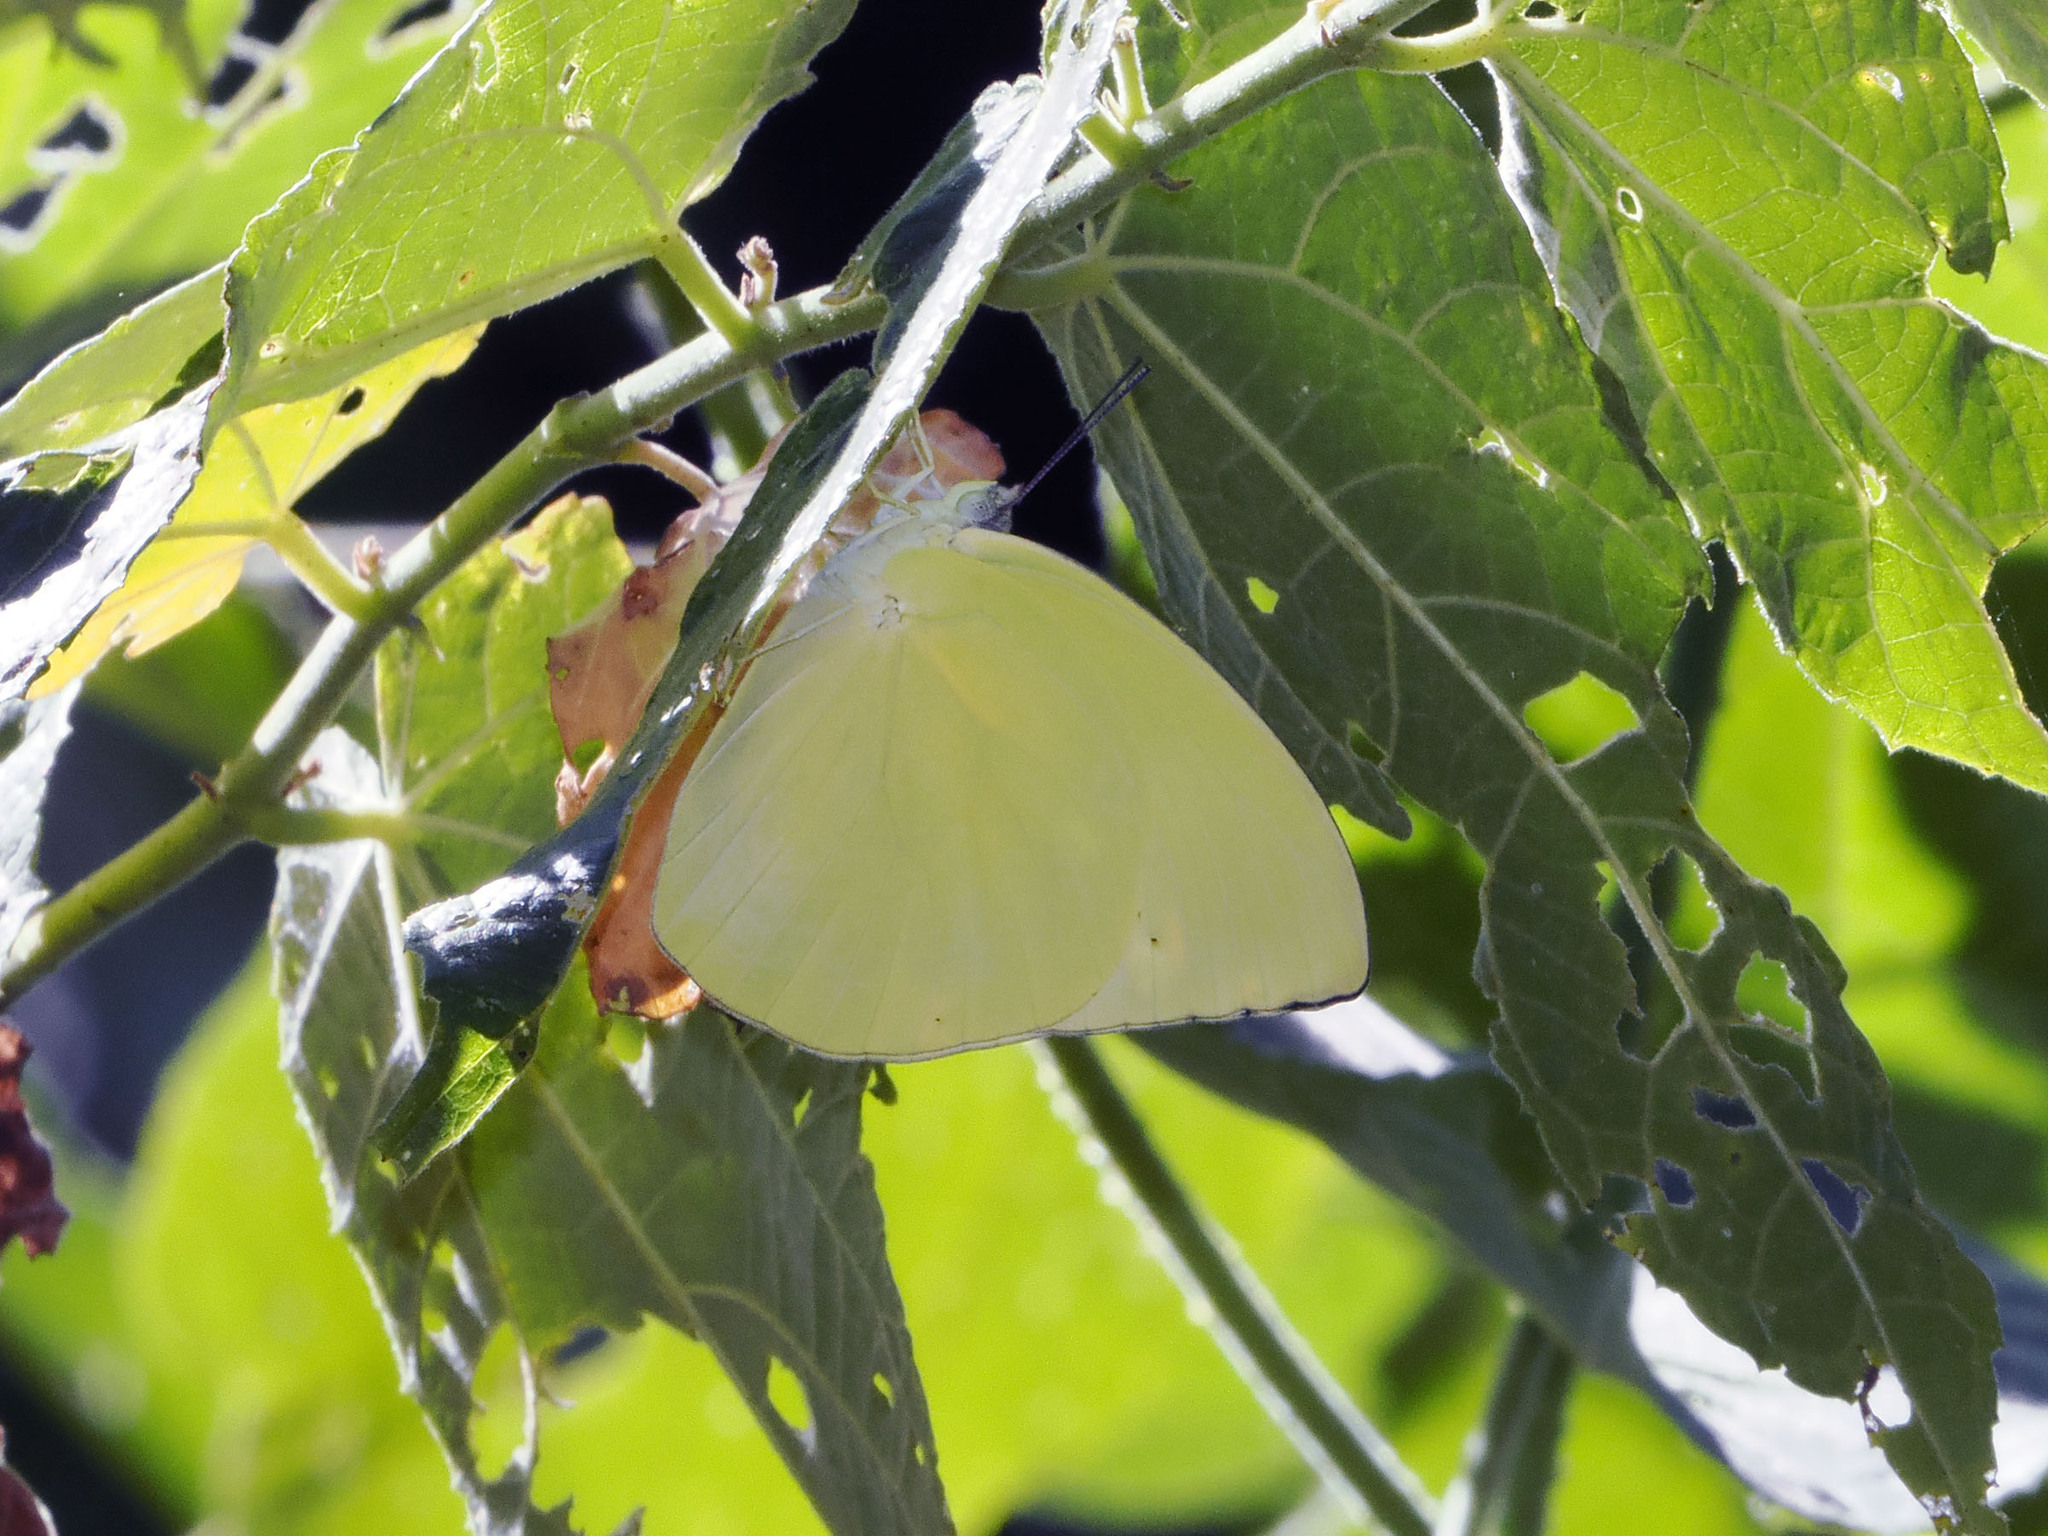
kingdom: Animalia
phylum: Arthropoda
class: Insecta
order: Lepidoptera
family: Pieridae
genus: Catopsilia
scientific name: Catopsilia pomona
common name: Common emigrant
